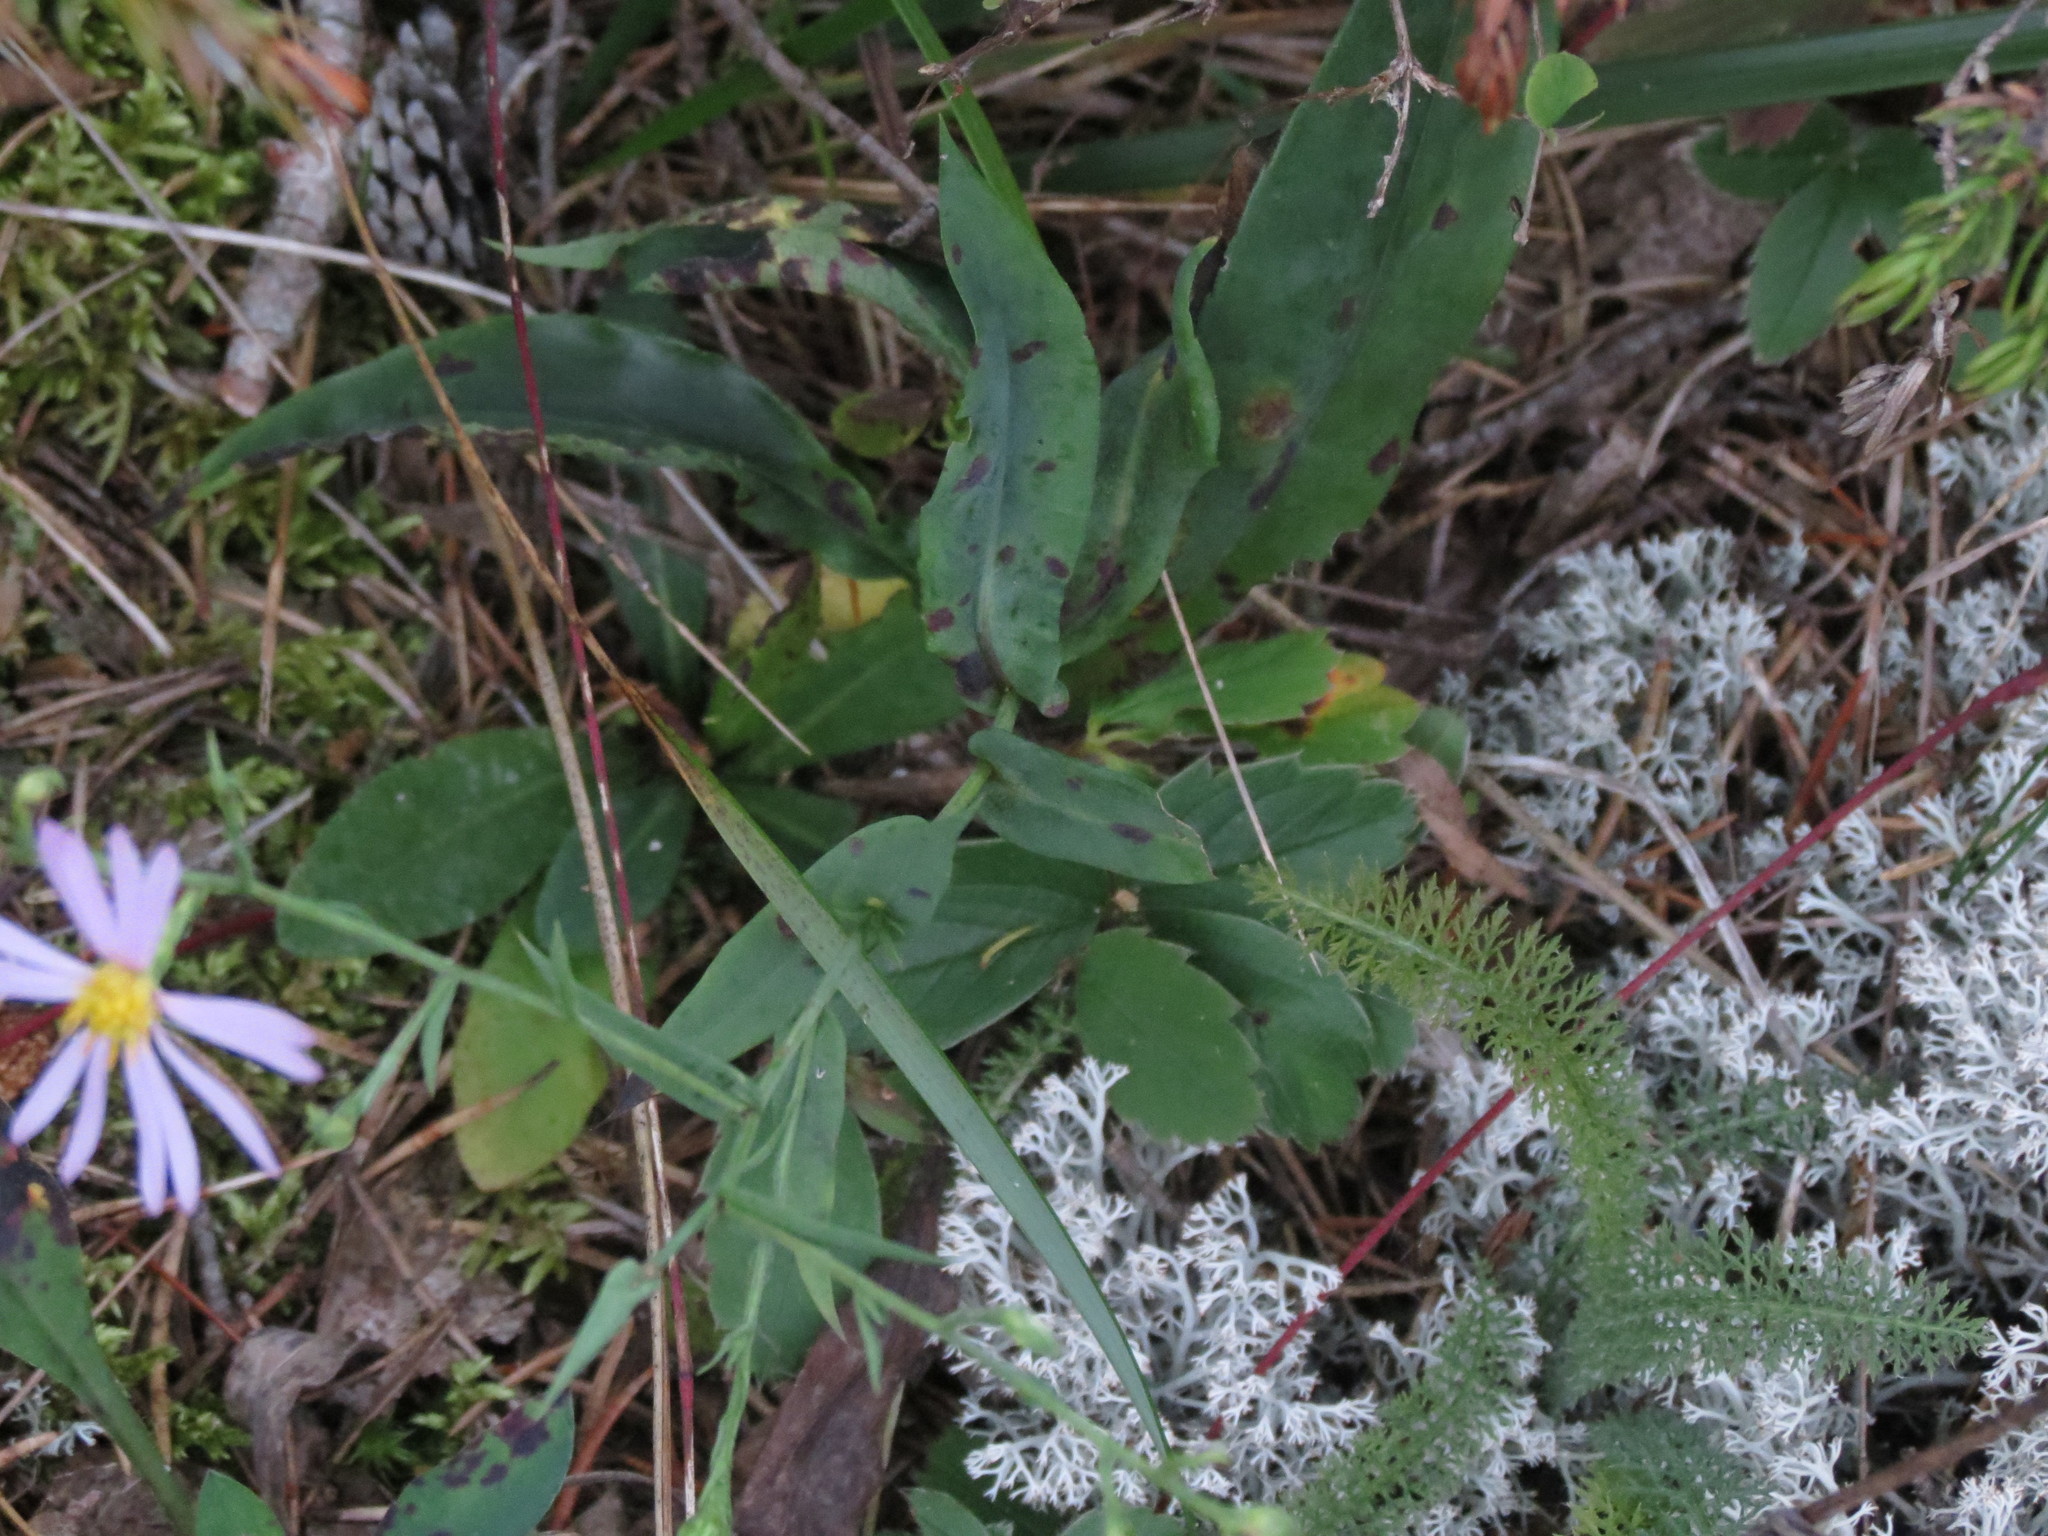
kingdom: Plantae
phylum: Tracheophyta
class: Magnoliopsida
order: Asterales
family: Asteraceae
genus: Symphyotrichum
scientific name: Symphyotrichum laeve
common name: Glaucous aster
